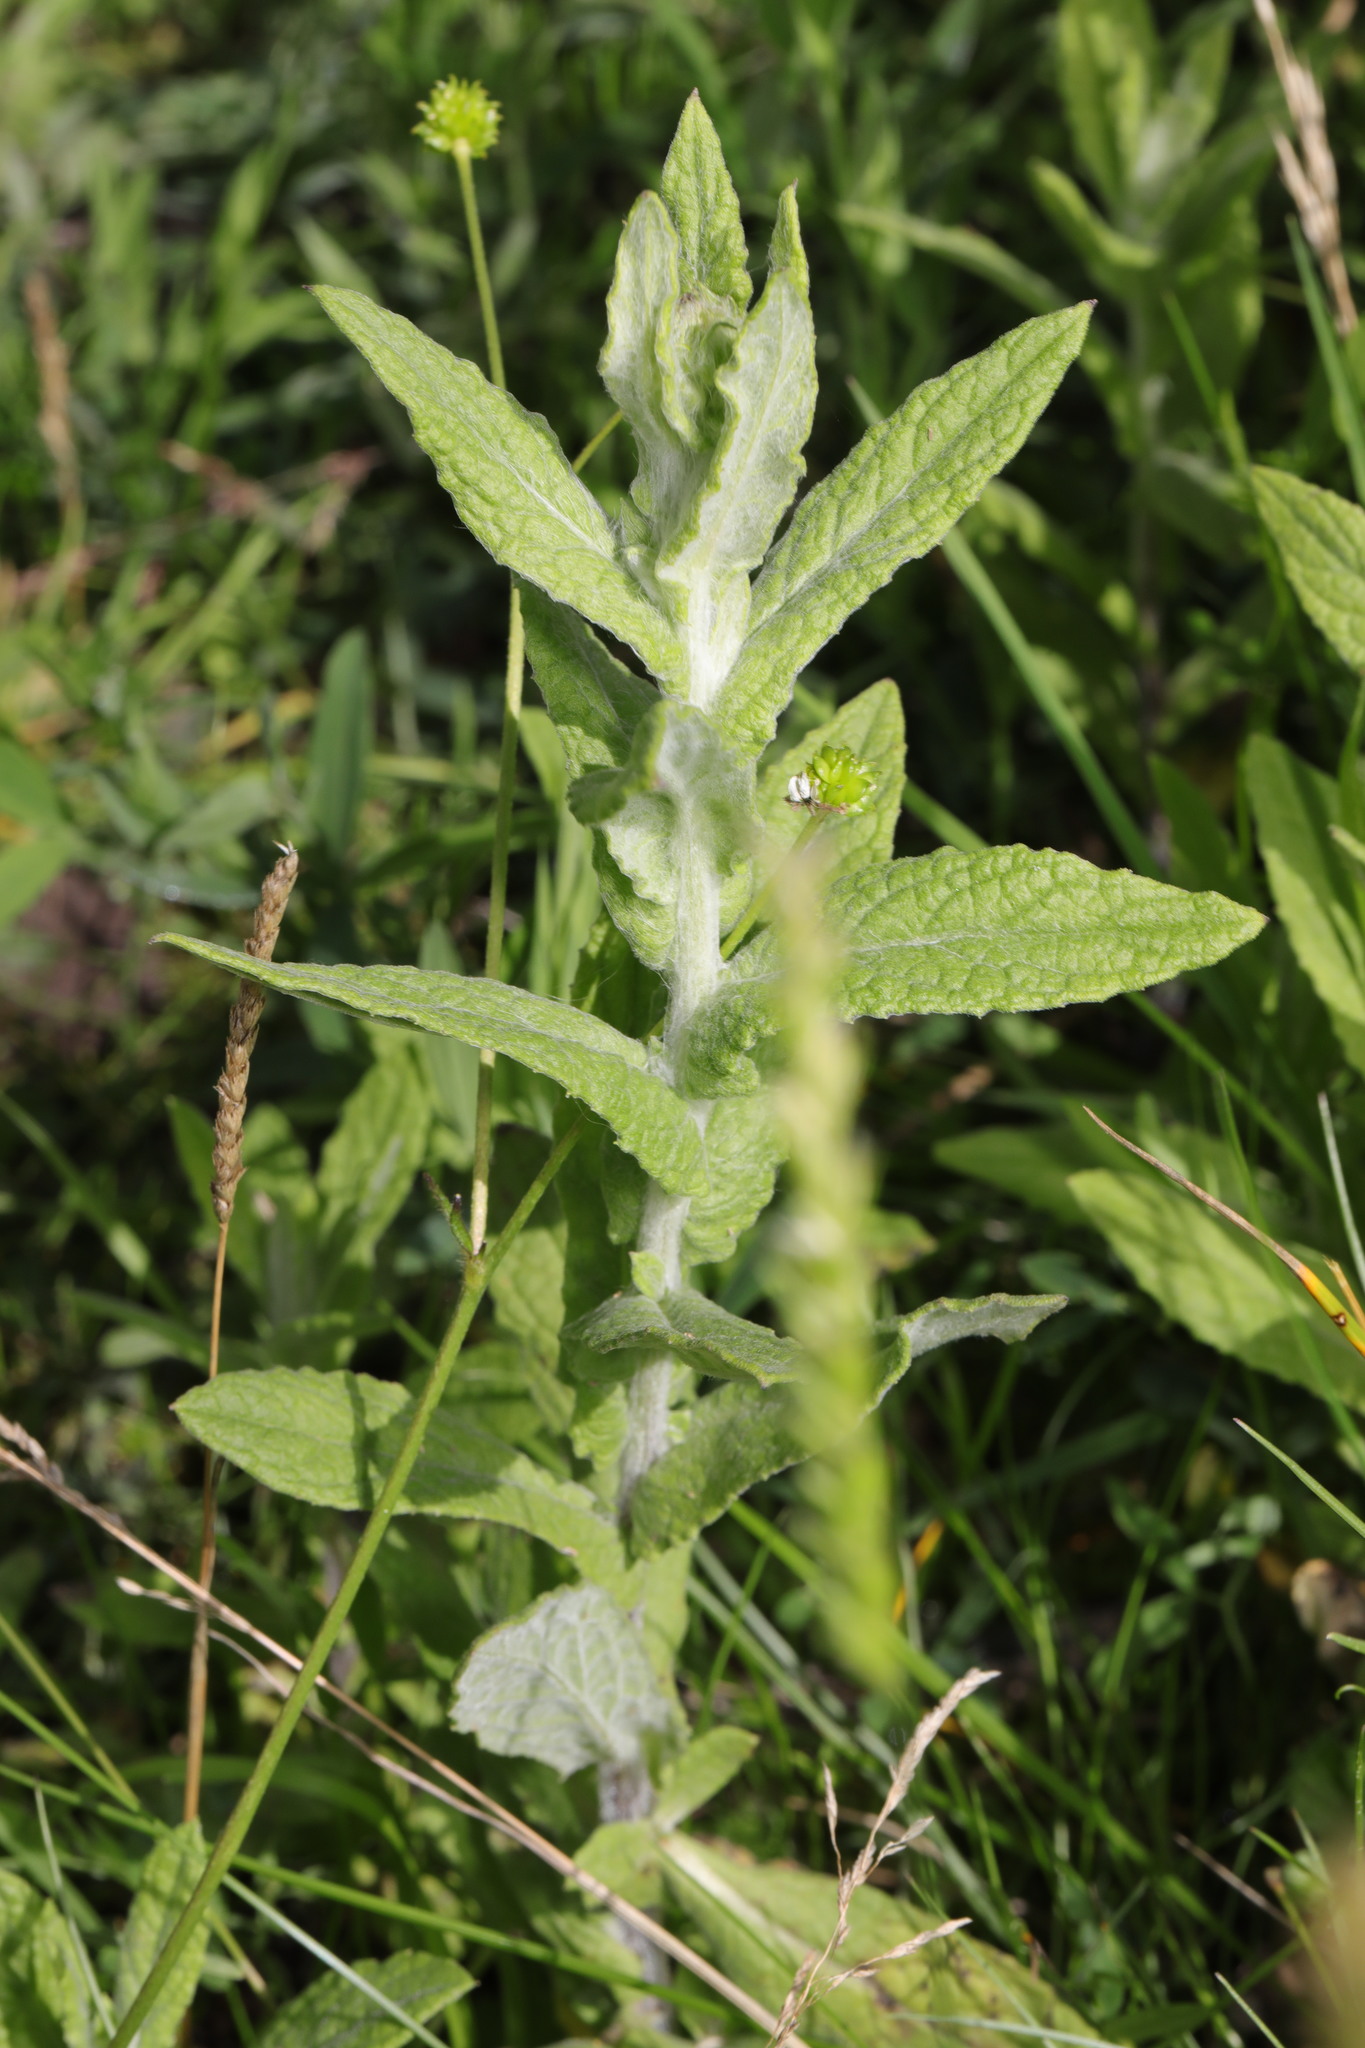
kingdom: Plantae
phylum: Tracheophyta
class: Magnoliopsida
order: Asterales
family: Asteraceae
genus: Pulicaria
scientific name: Pulicaria dysenterica
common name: Common fleabane
